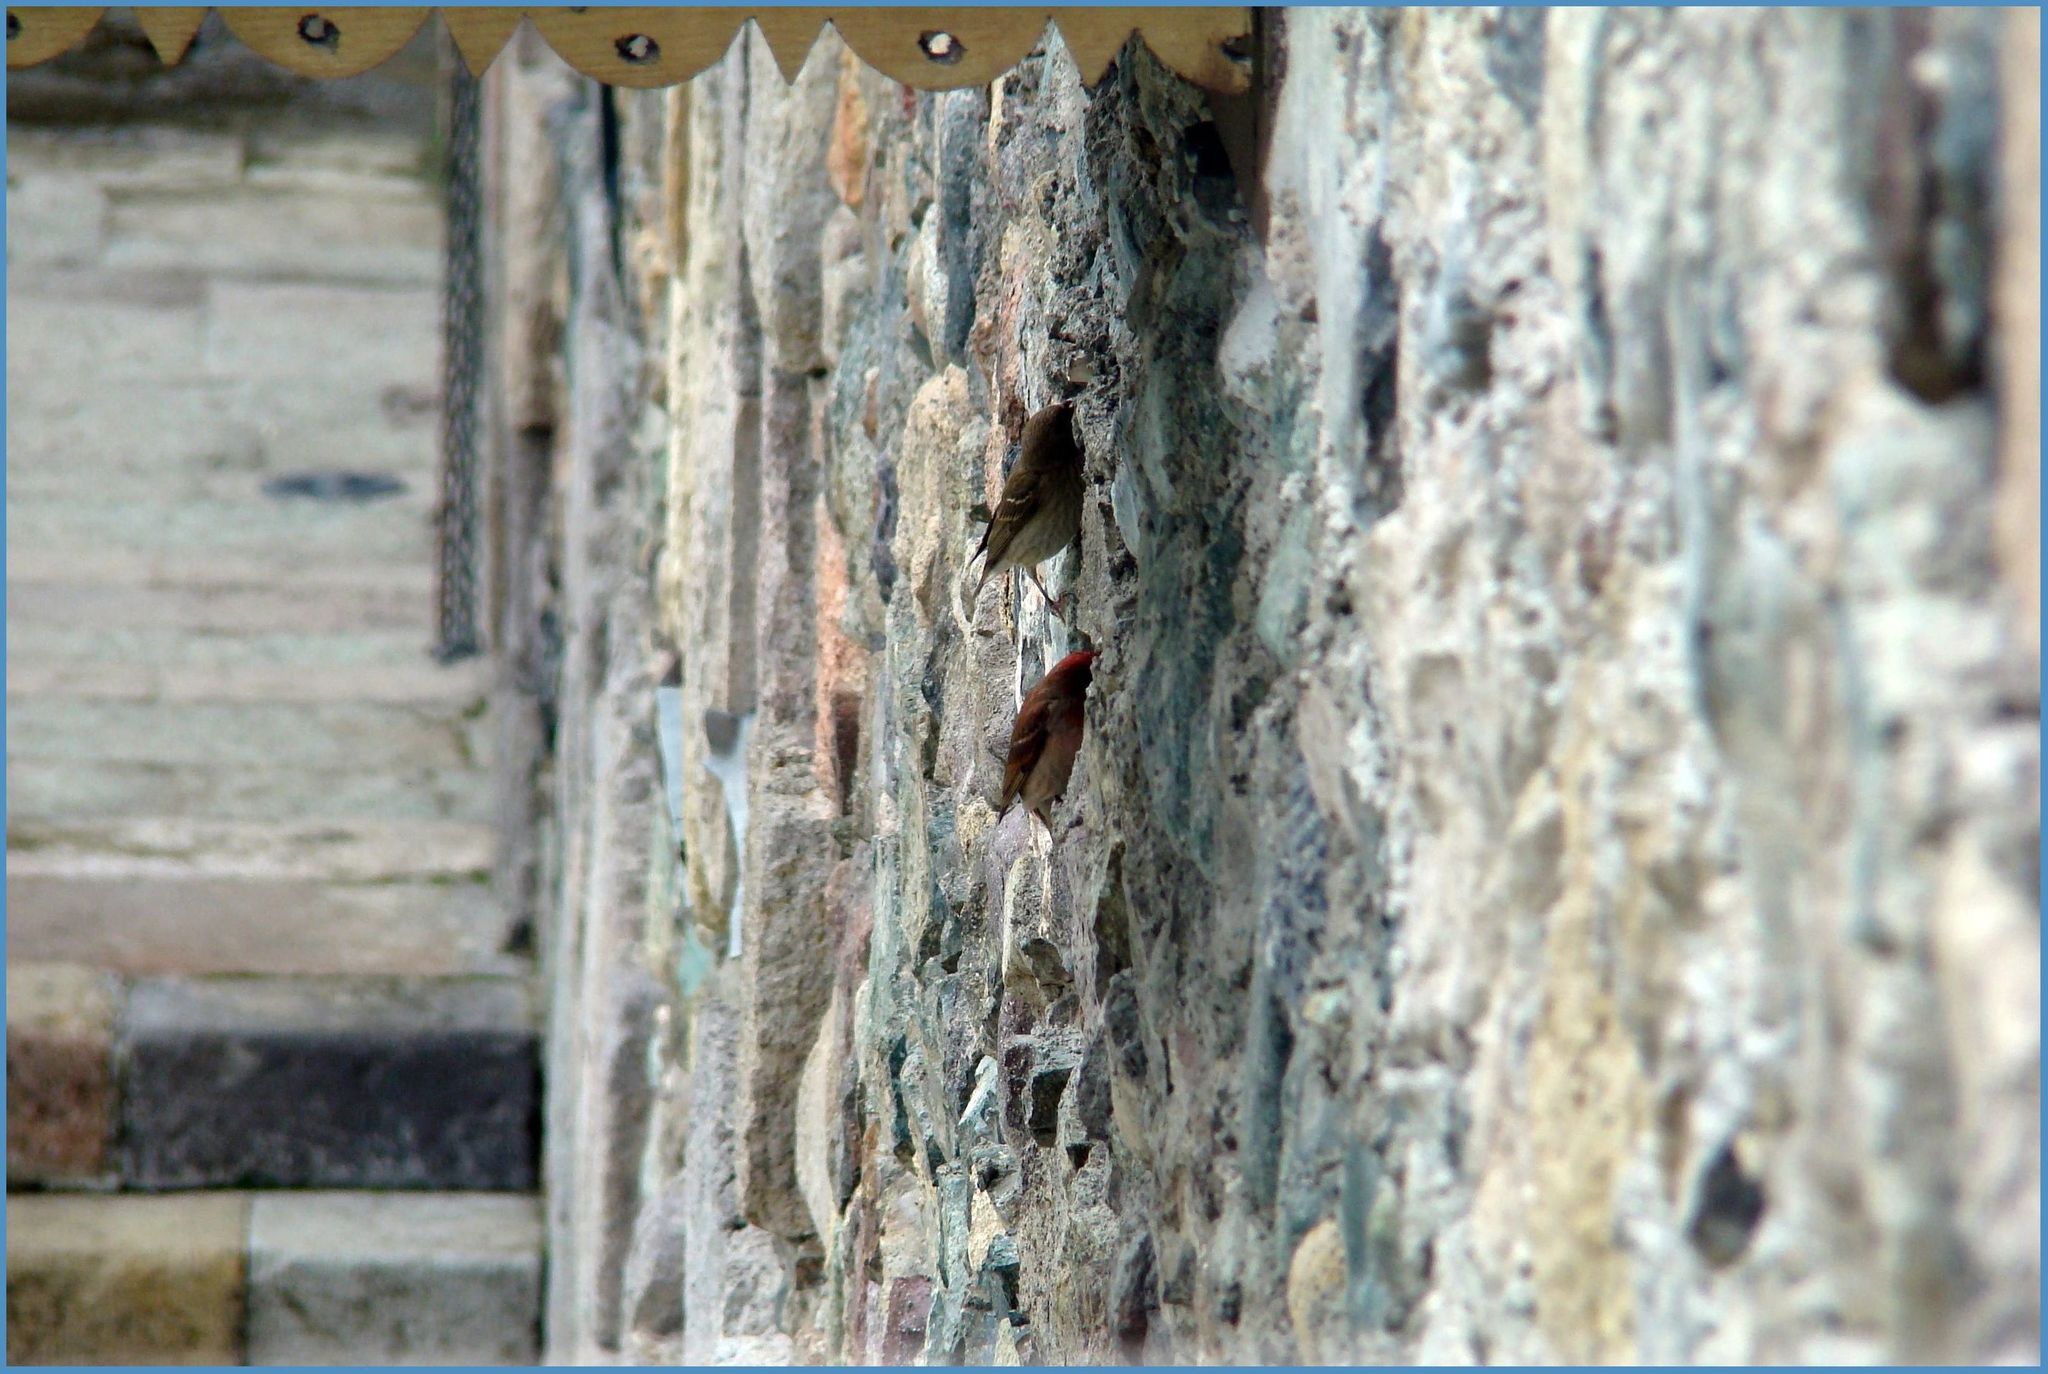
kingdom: Animalia
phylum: Chordata
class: Aves
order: Passeriformes
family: Fringillidae
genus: Carpodacus
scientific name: Carpodacus erythrinus
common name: Common rosefinch
